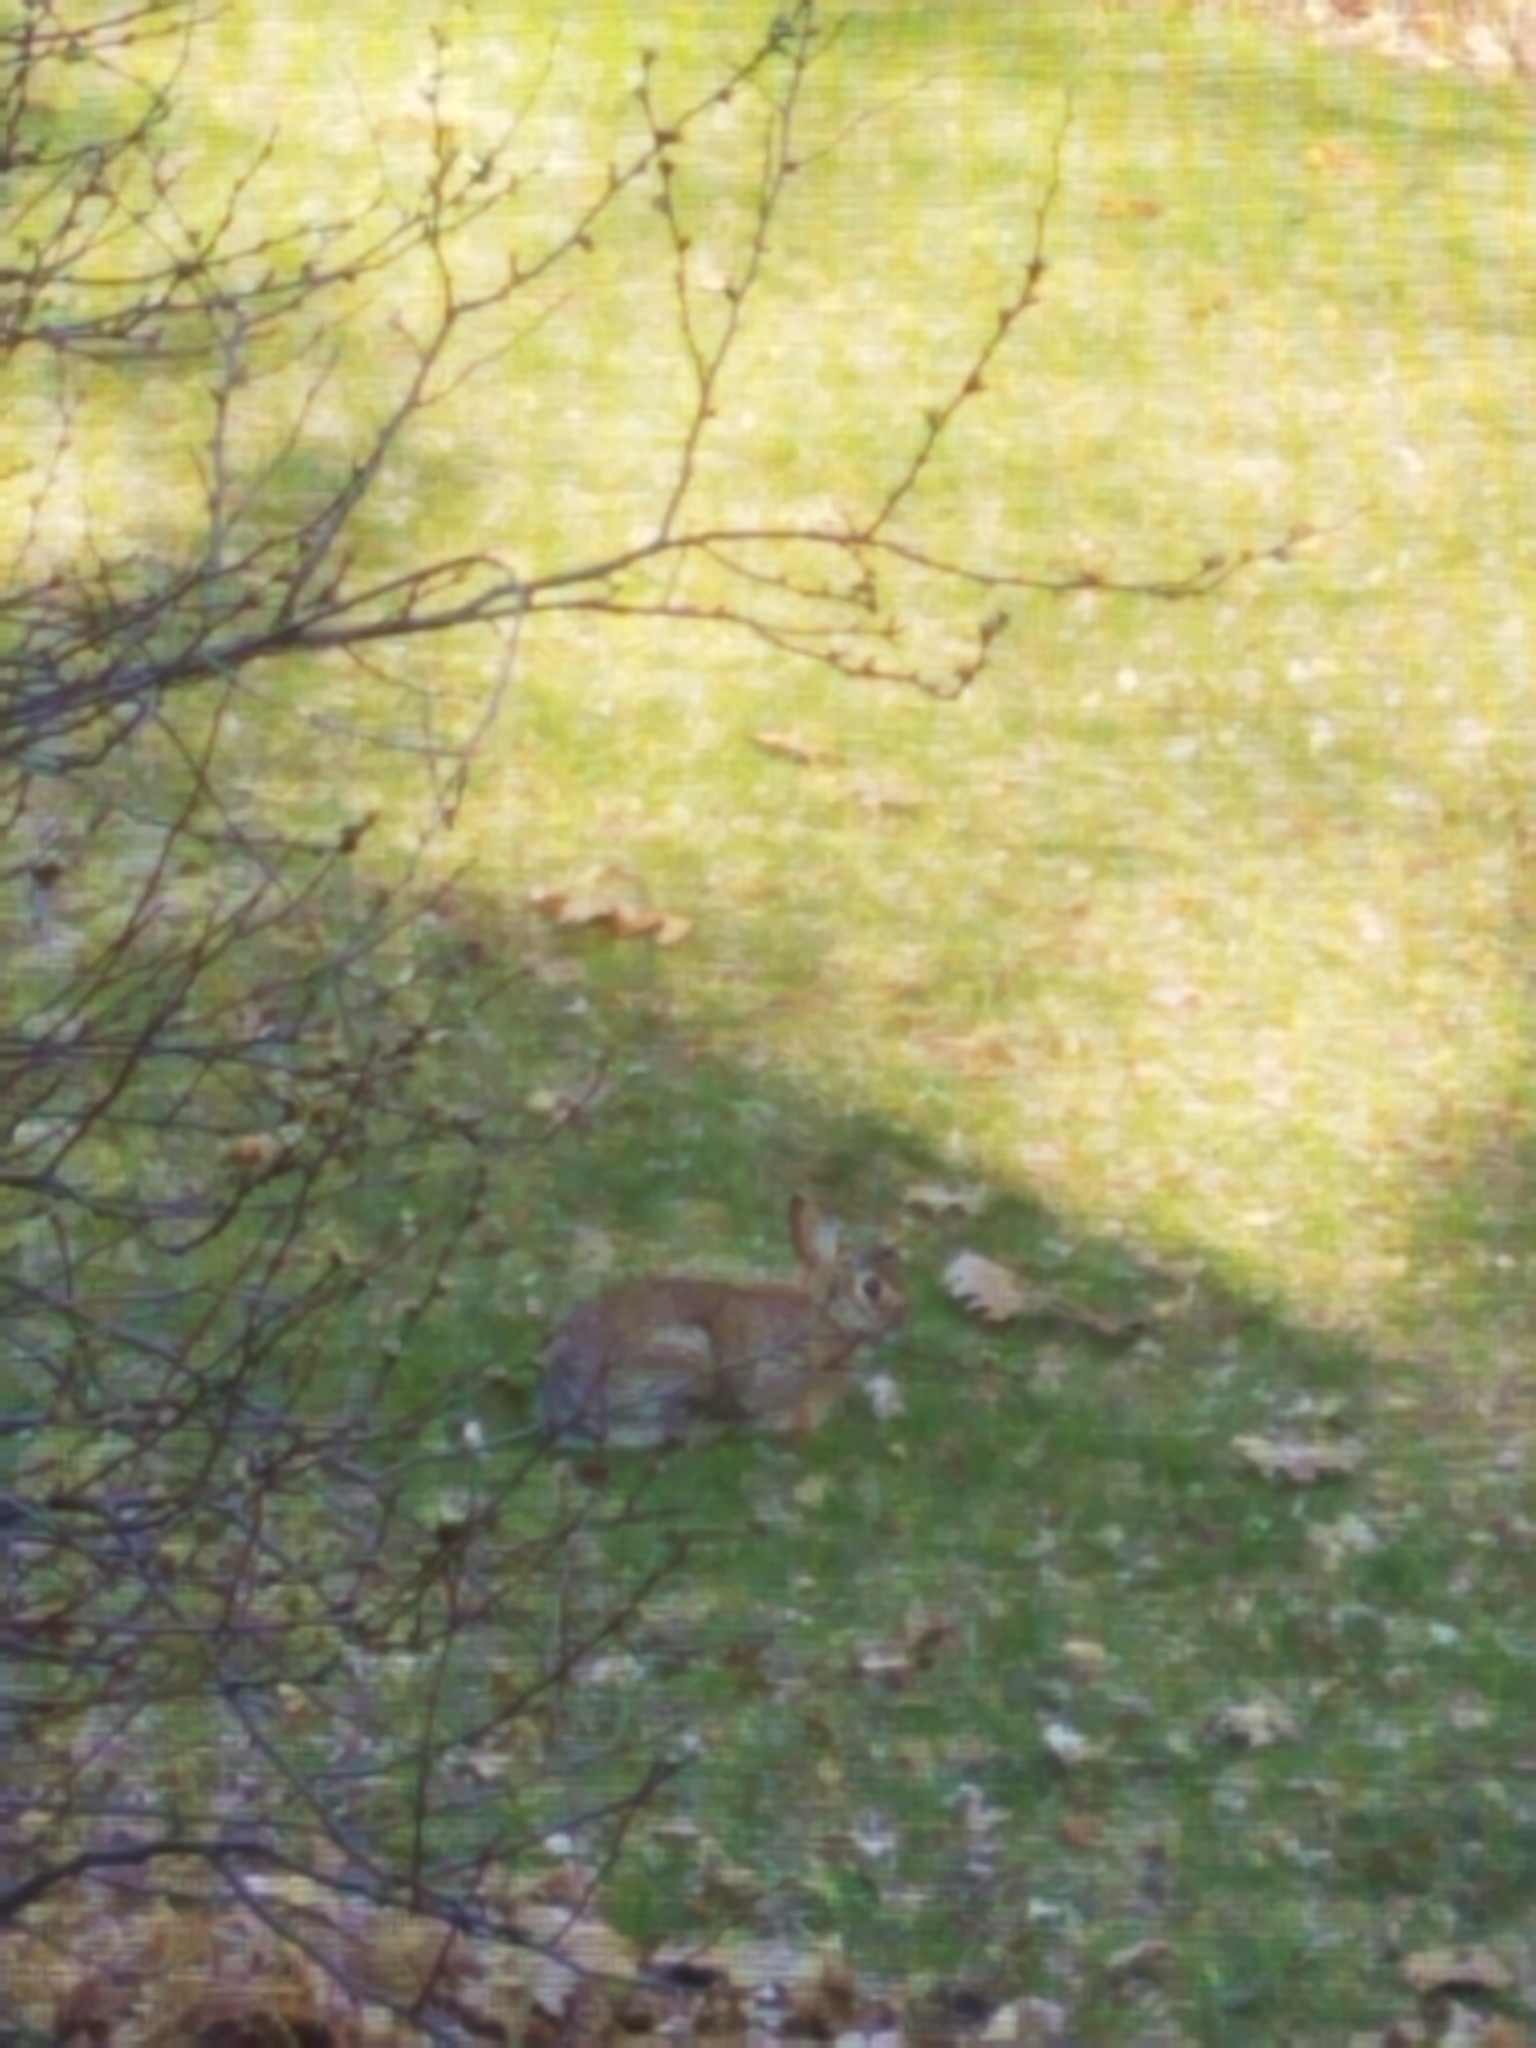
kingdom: Animalia
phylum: Chordata
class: Mammalia
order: Lagomorpha
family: Leporidae
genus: Sylvilagus
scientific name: Sylvilagus floridanus
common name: Eastern cottontail
